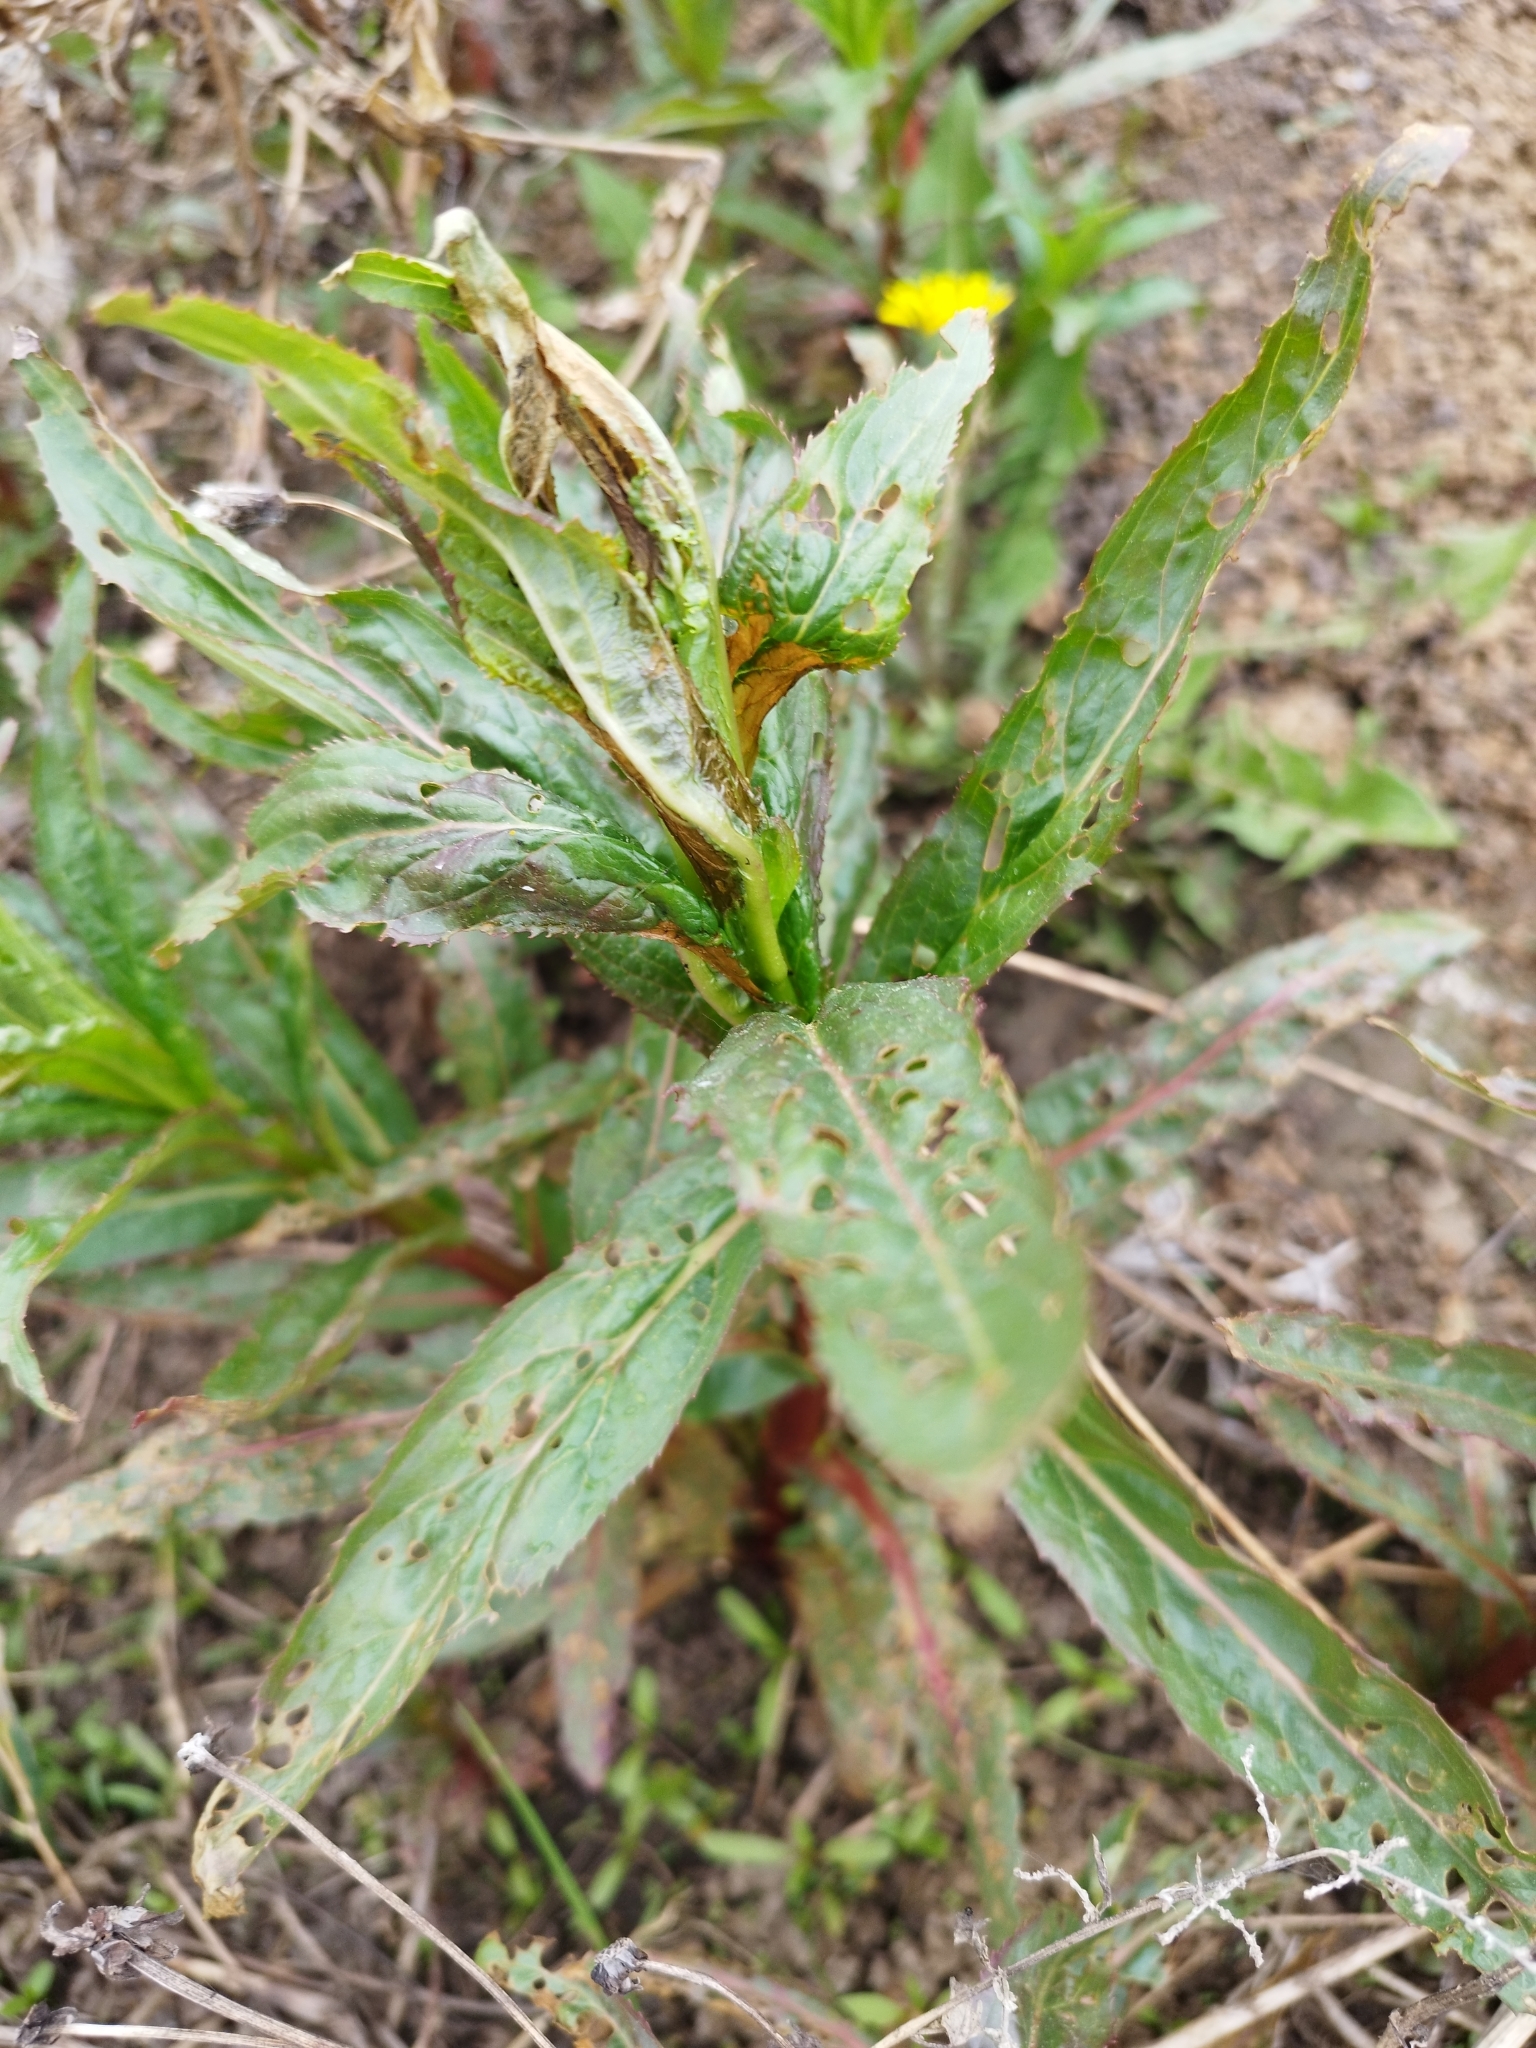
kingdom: Plantae
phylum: Tracheophyta
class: Magnoliopsida
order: Myrtales
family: Onagraceae
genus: Epilobium
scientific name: Epilobium hirsutum
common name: Great willowherb
